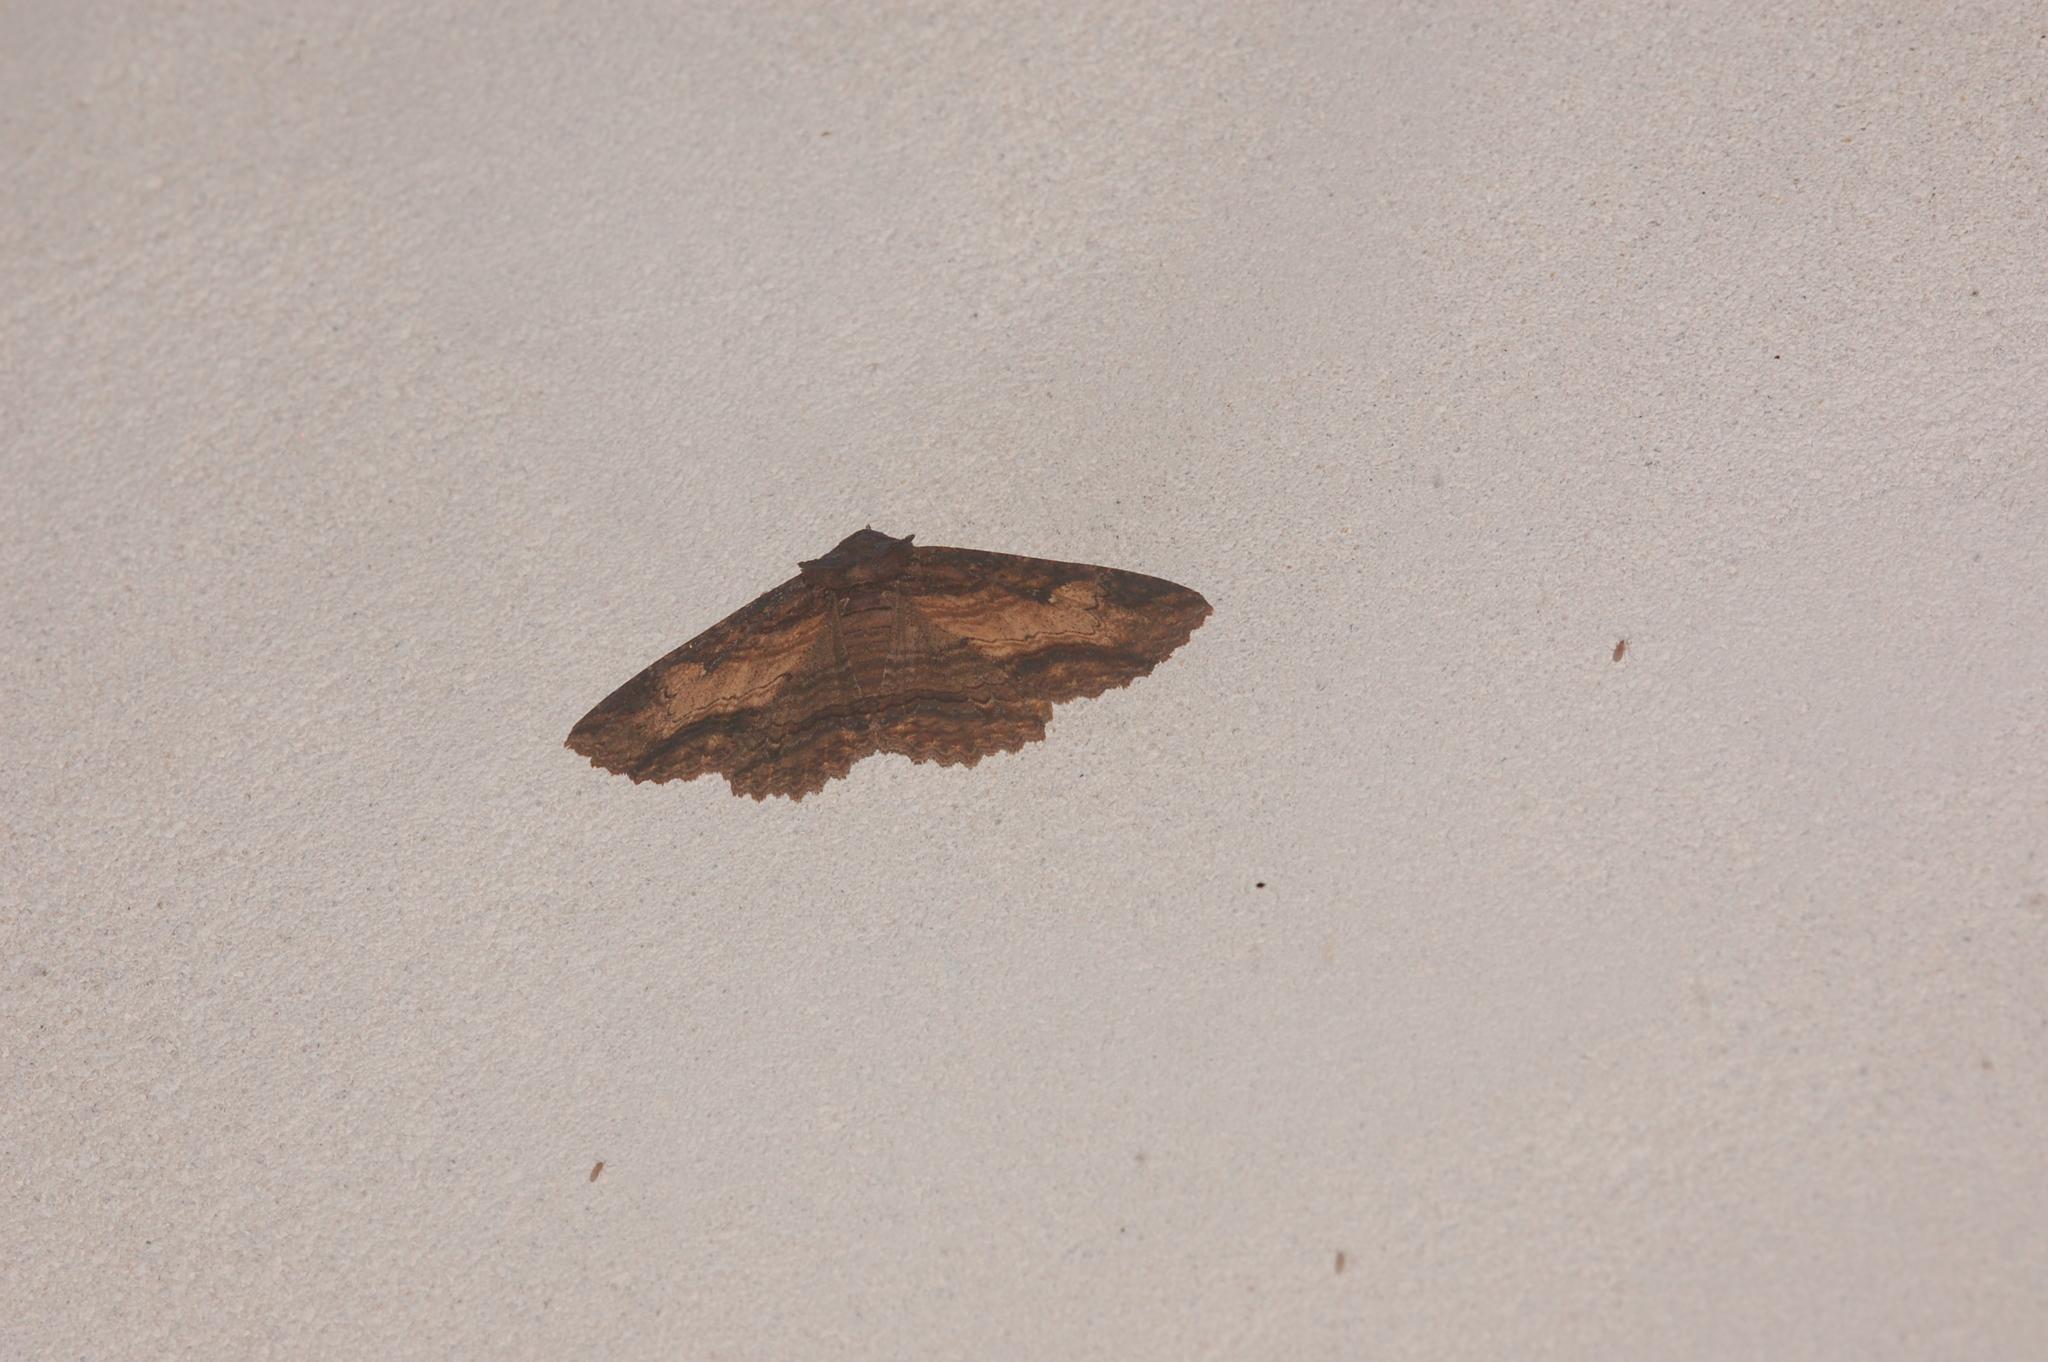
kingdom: Animalia
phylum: Arthropoda
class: Insecta
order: Lepidoptera
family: Erebidae
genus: Zale
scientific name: Zale lunata
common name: Lunate zale moth
